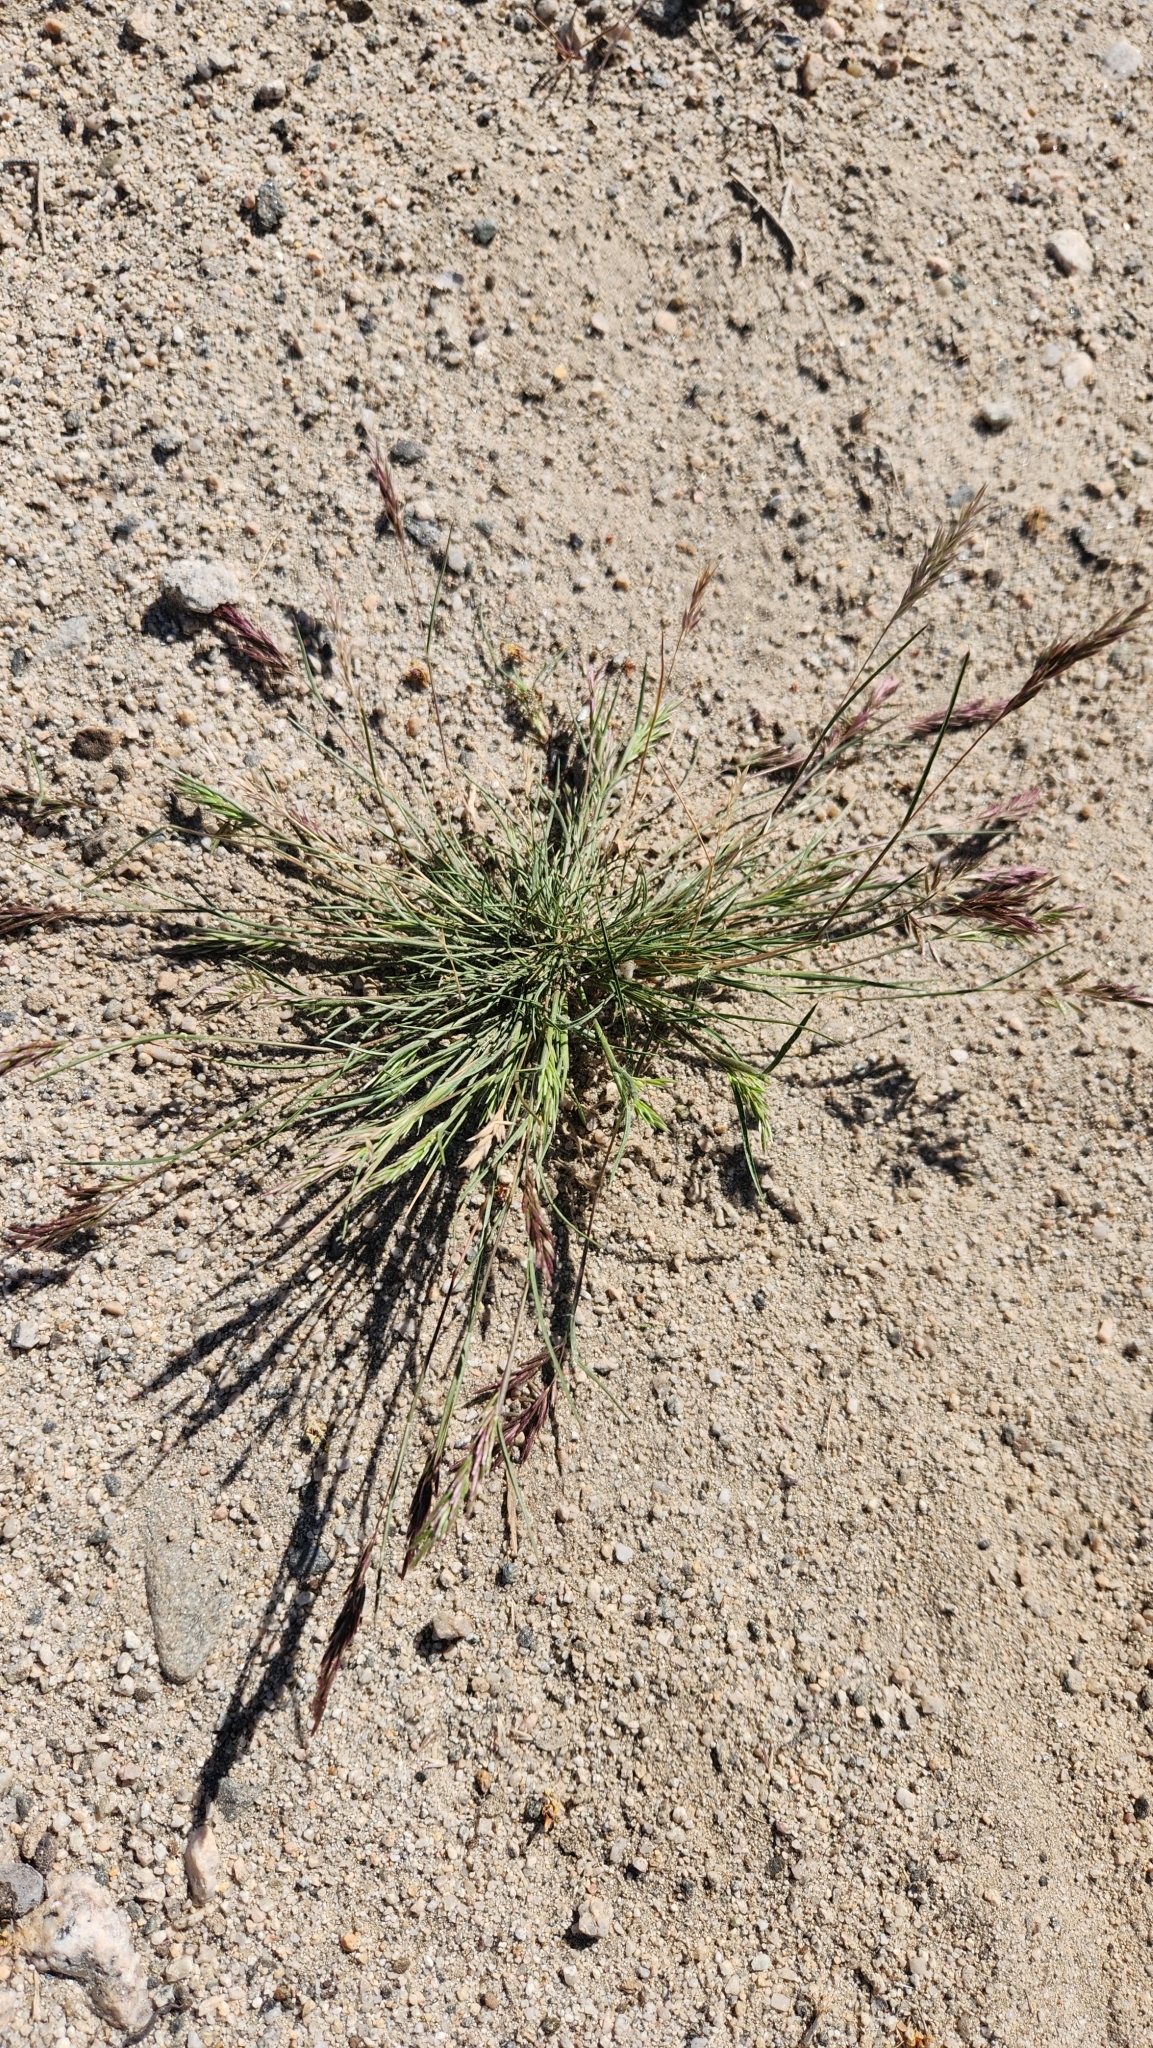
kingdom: Plantae
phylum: Tracheophyta
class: Liliopsida
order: Poales
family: Poaceae
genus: Schismus
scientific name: Schismus barbatus
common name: Kelch-grass
